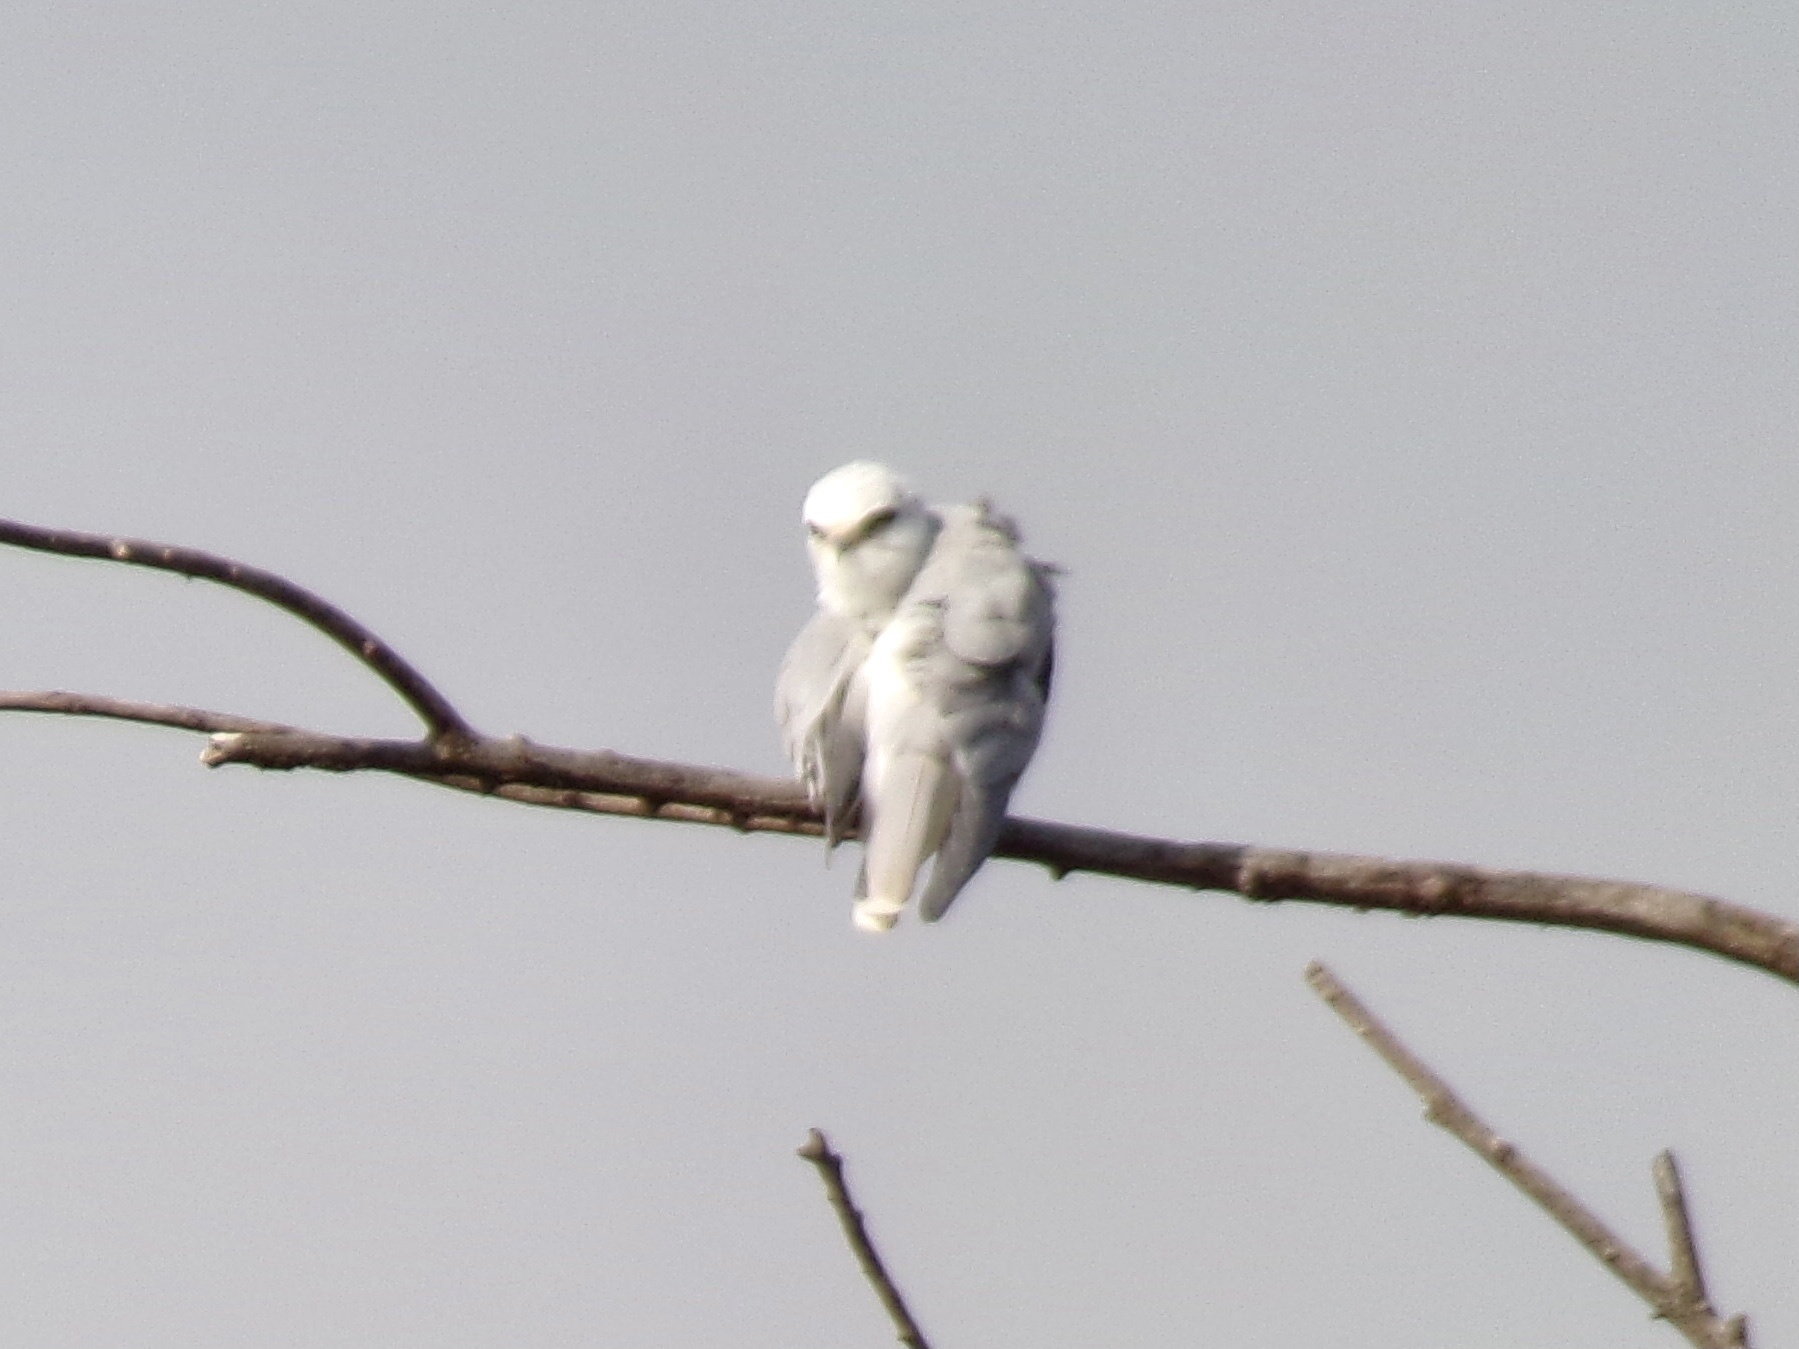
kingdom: Animalia
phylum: Chordata
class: Aves
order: Accipitriformes
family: Accipitridae
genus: Elanus
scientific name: Elanus leucurus
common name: White-tailed kite
